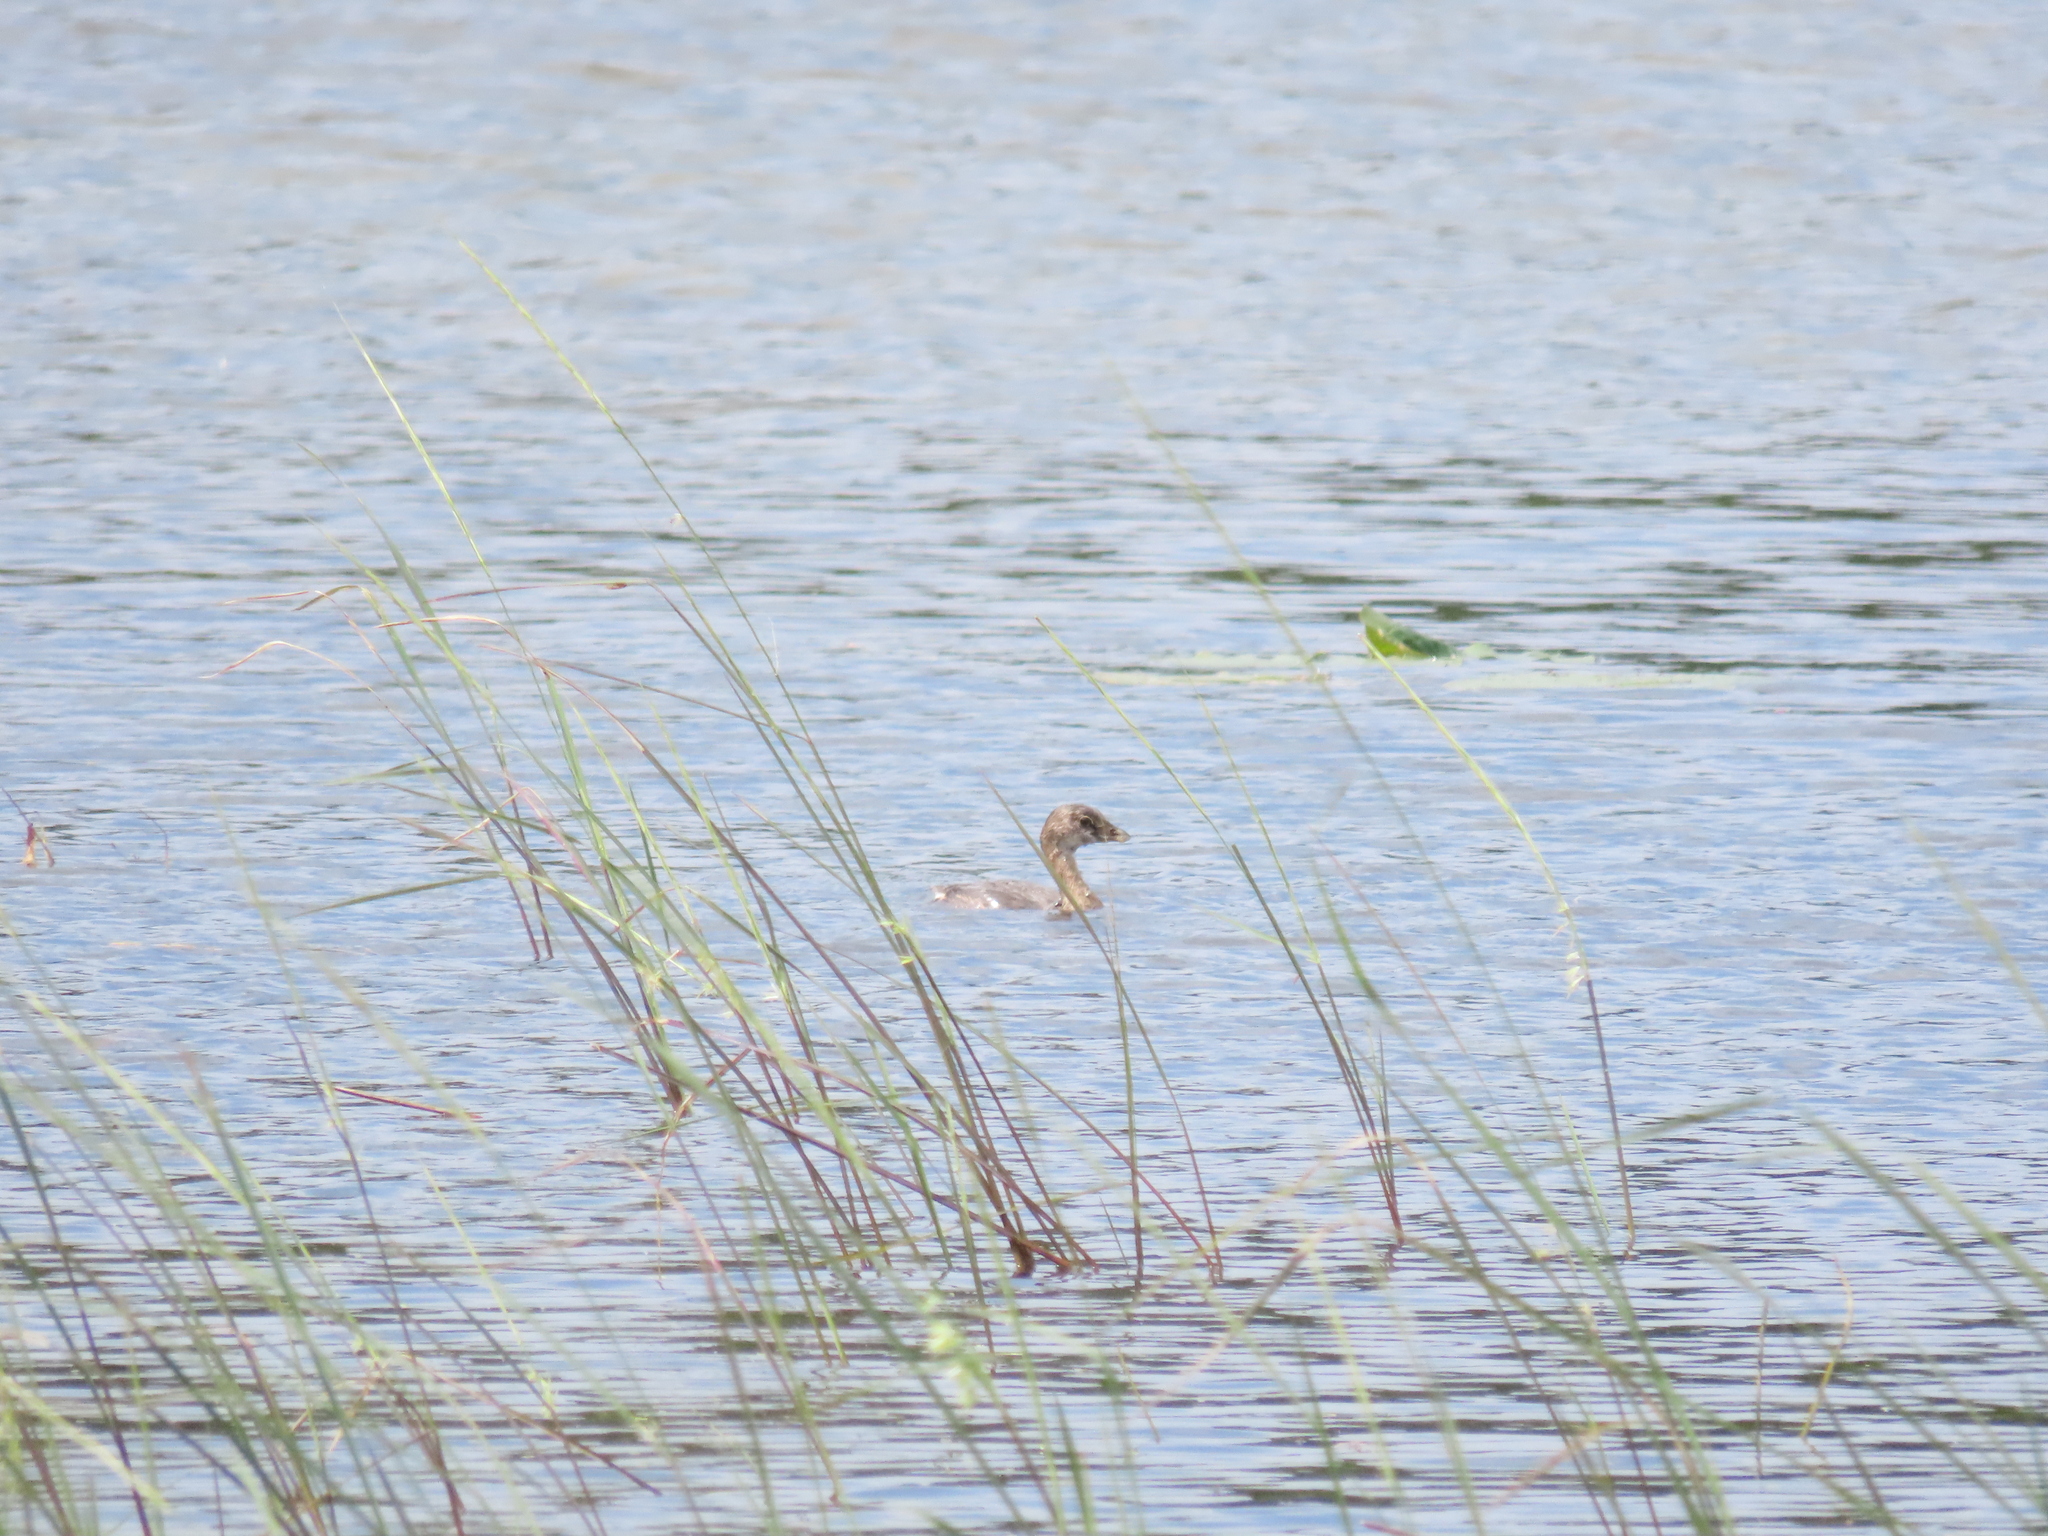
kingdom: Animalia
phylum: Chordata
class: Aves
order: Podicipediformes
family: Podicipedidae
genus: Podilymbus
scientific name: Podilymbus podiceps
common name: Pied-billed grebe
